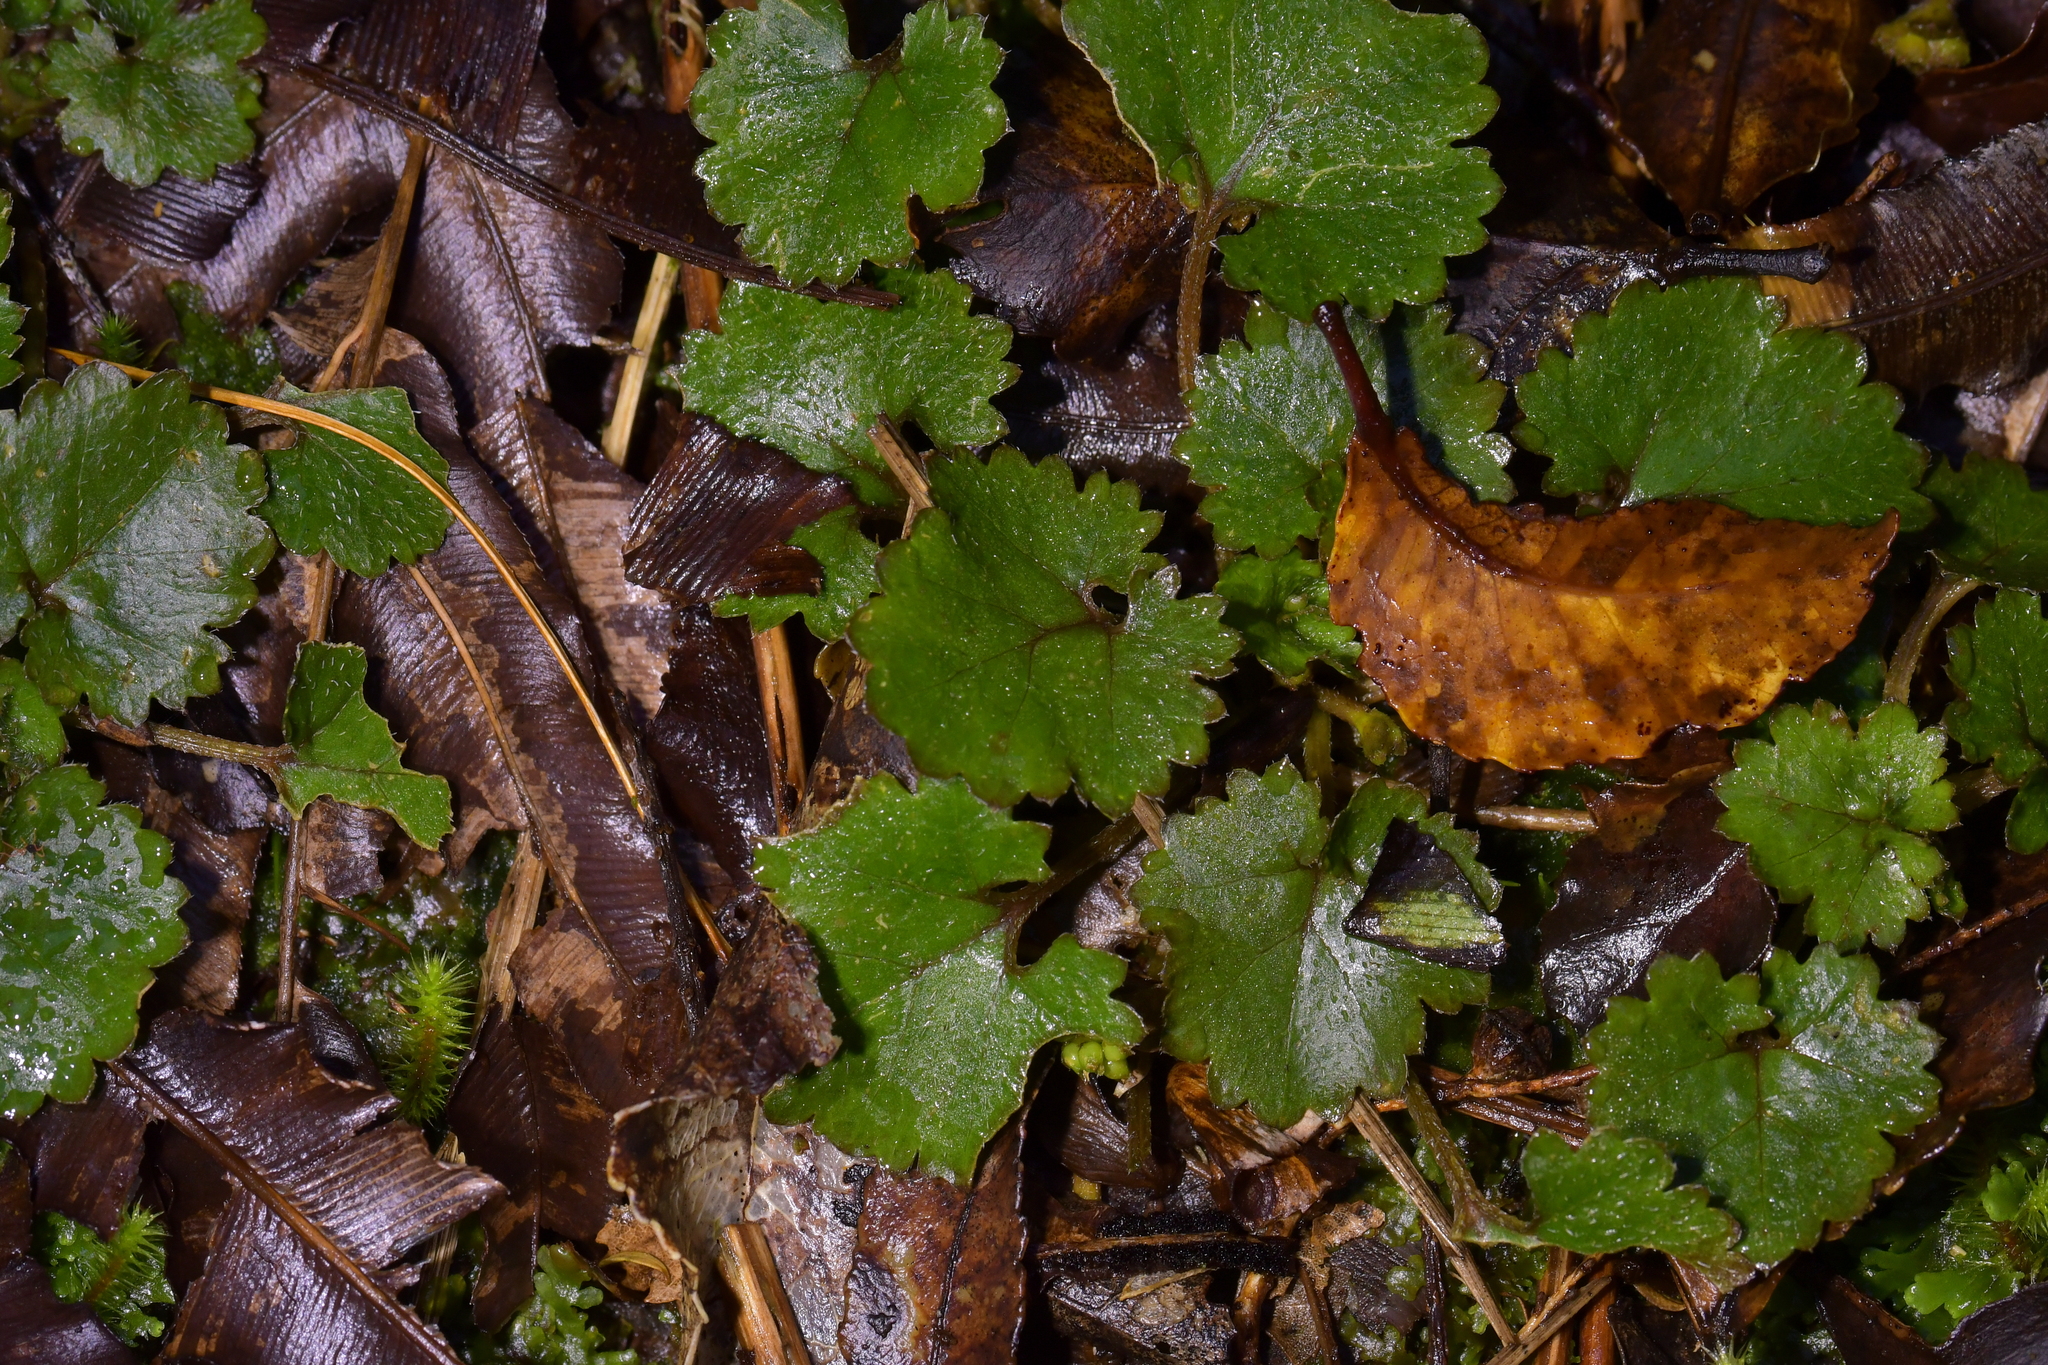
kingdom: Plantae
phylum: Tracheophyta
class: Magnoliopsida
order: Gunnerales
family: Gunneraceae
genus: Gunnera
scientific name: Gunnera monoica
